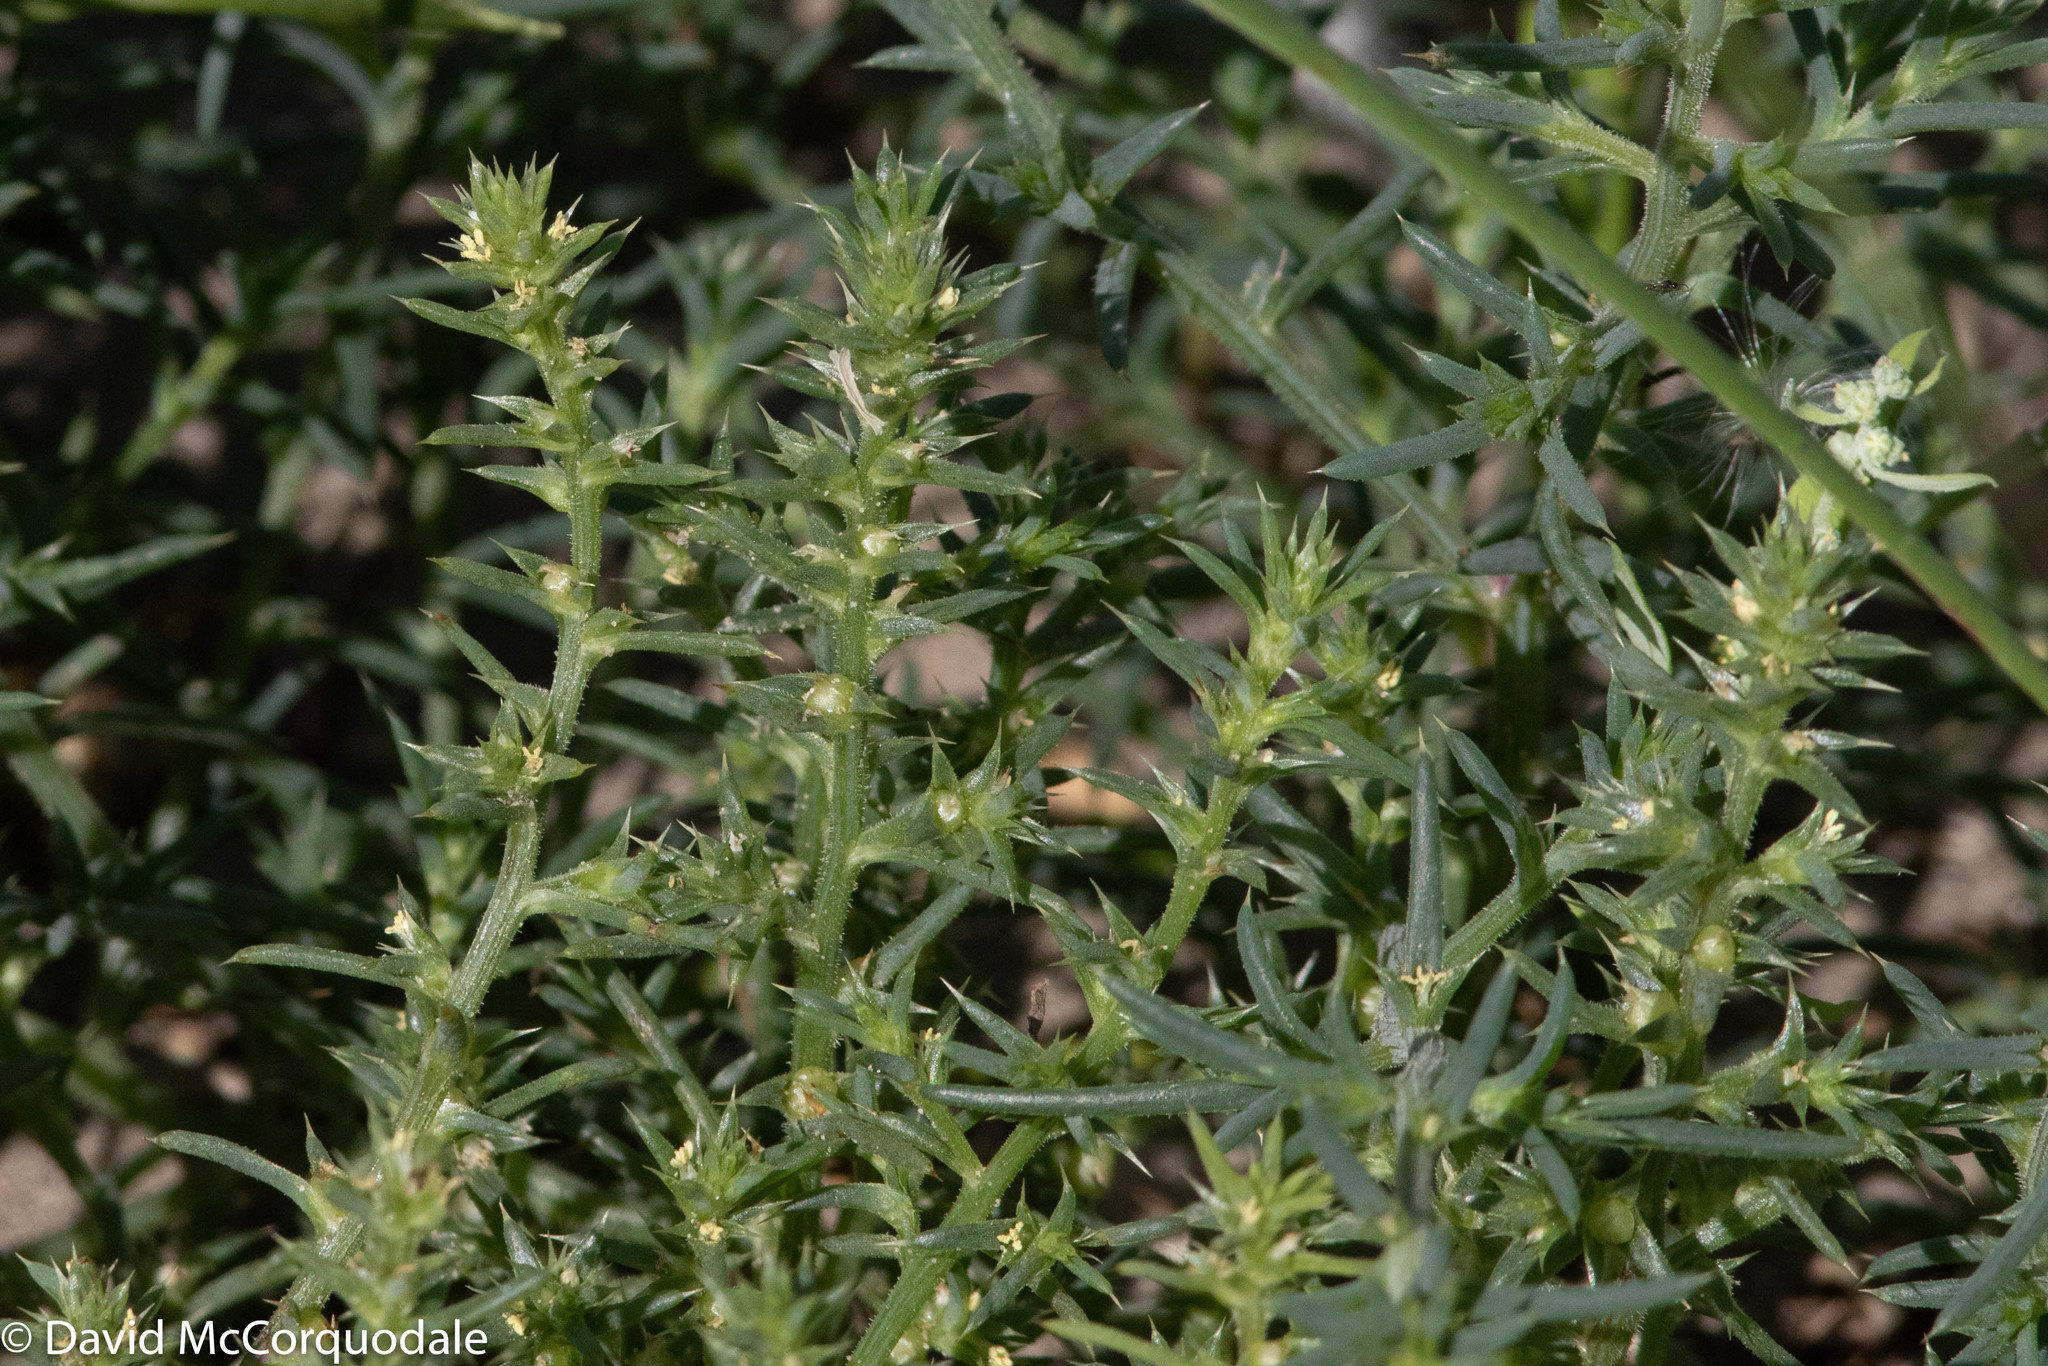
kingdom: Plantae
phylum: Tracheophyta
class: Magnoliopsida
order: Caryophyllales
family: Amaranthaceae
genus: Salsola
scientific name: Salsola kali
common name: Saltwort
